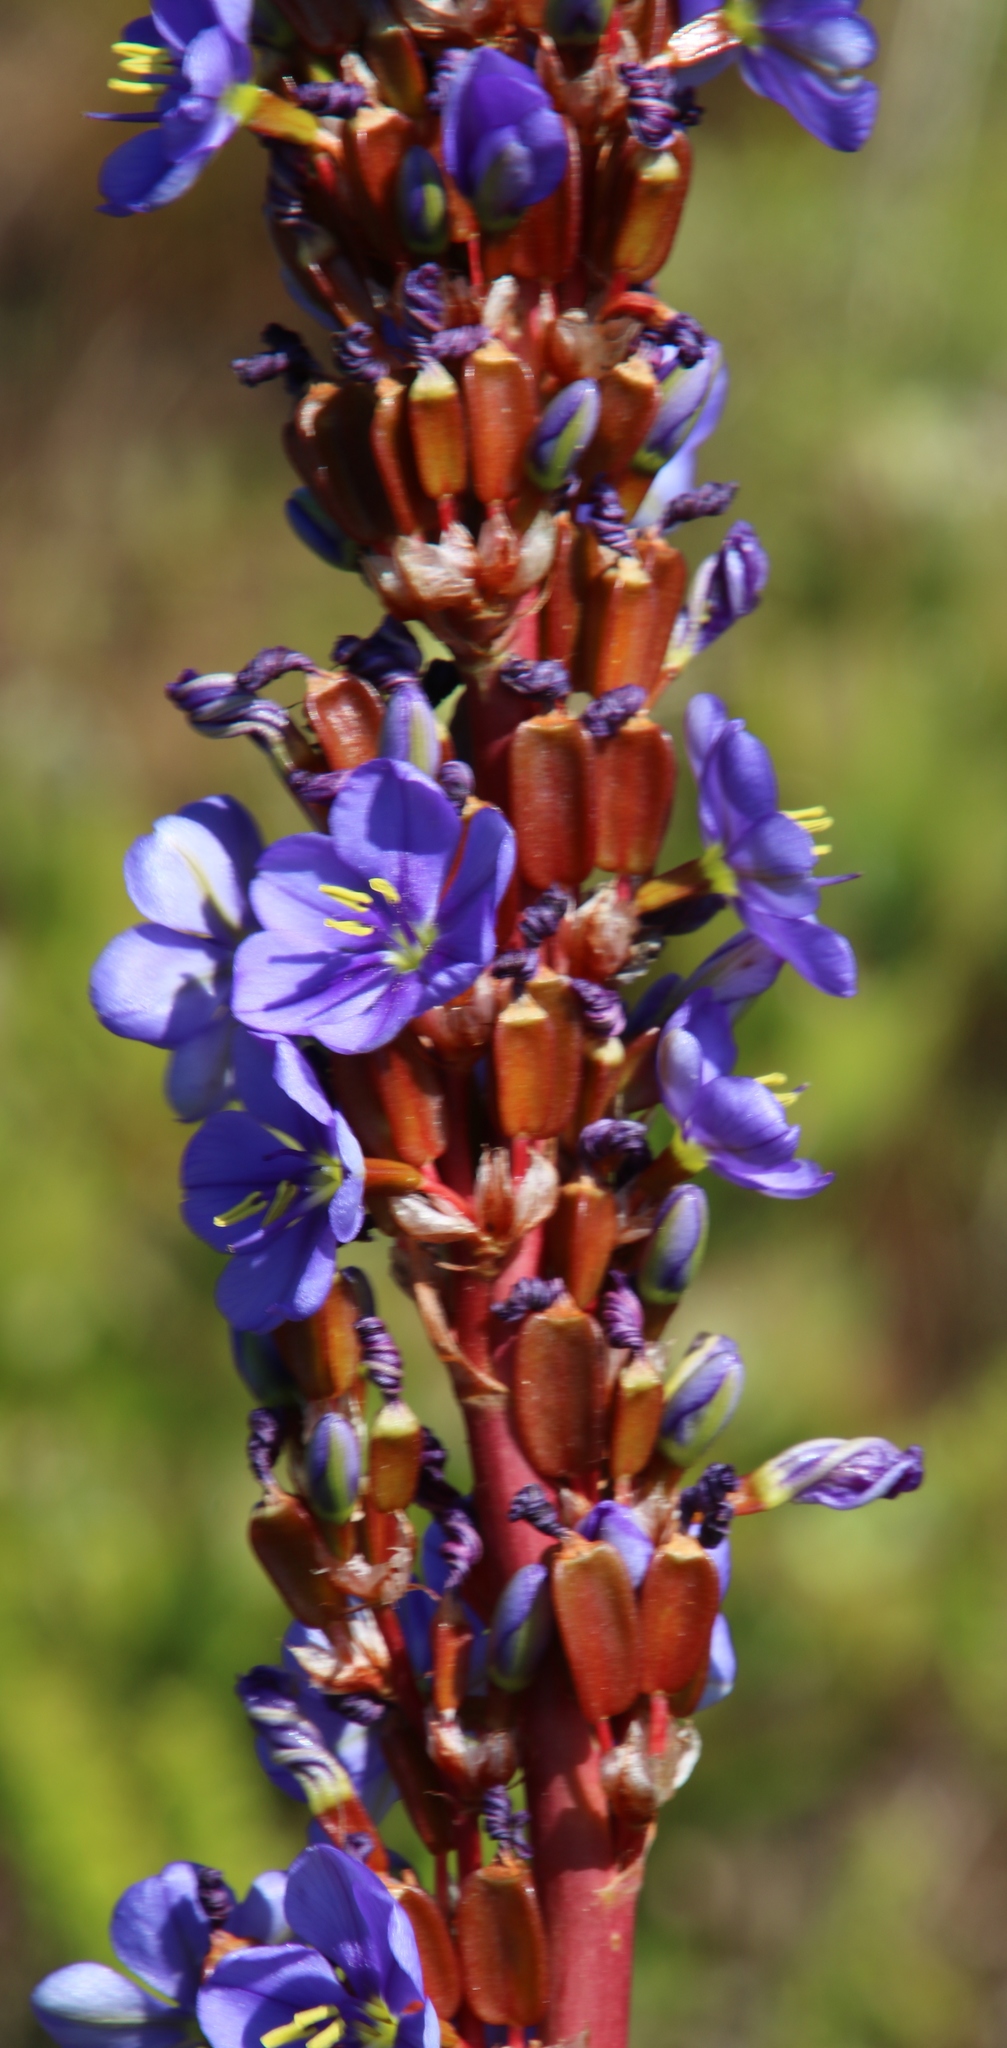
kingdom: Plantae
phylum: Tracheophyta
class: Liliopsida
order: Asparagales
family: Iridaceae
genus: Aristea
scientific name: Aristea bakeri
